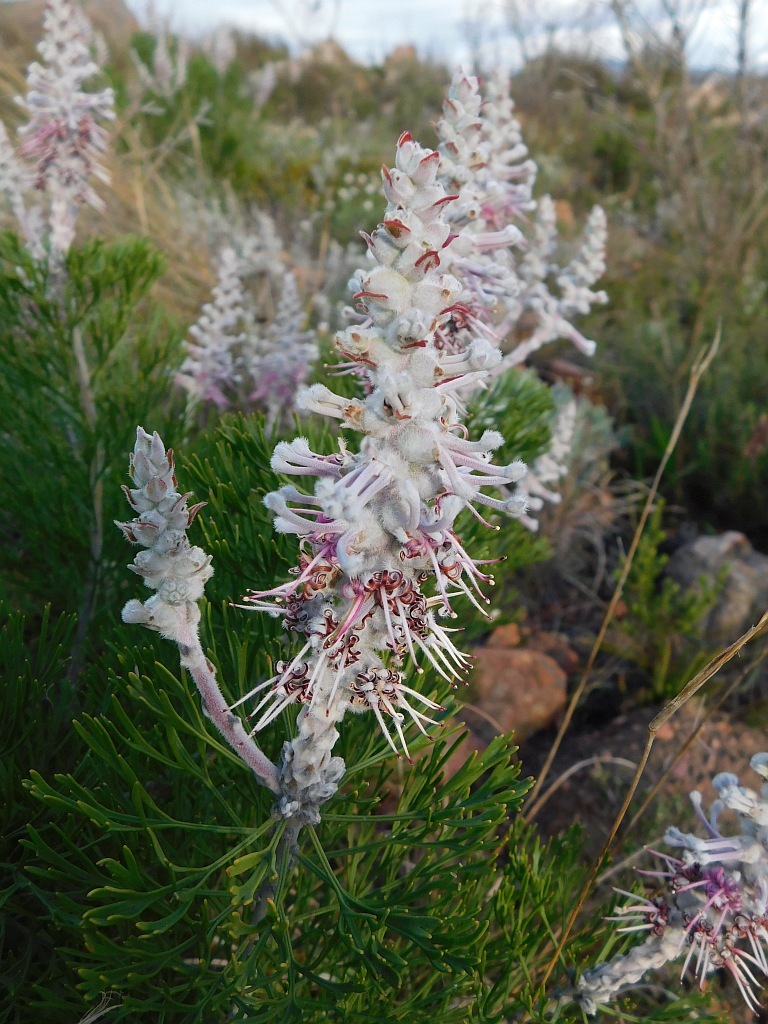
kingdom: Plantae
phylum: Tracheophyta
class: Magnoliopsida
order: Proteales
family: Proteaceae
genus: Paranomus
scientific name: Paranomus dispersus
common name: Long-head sceptre
